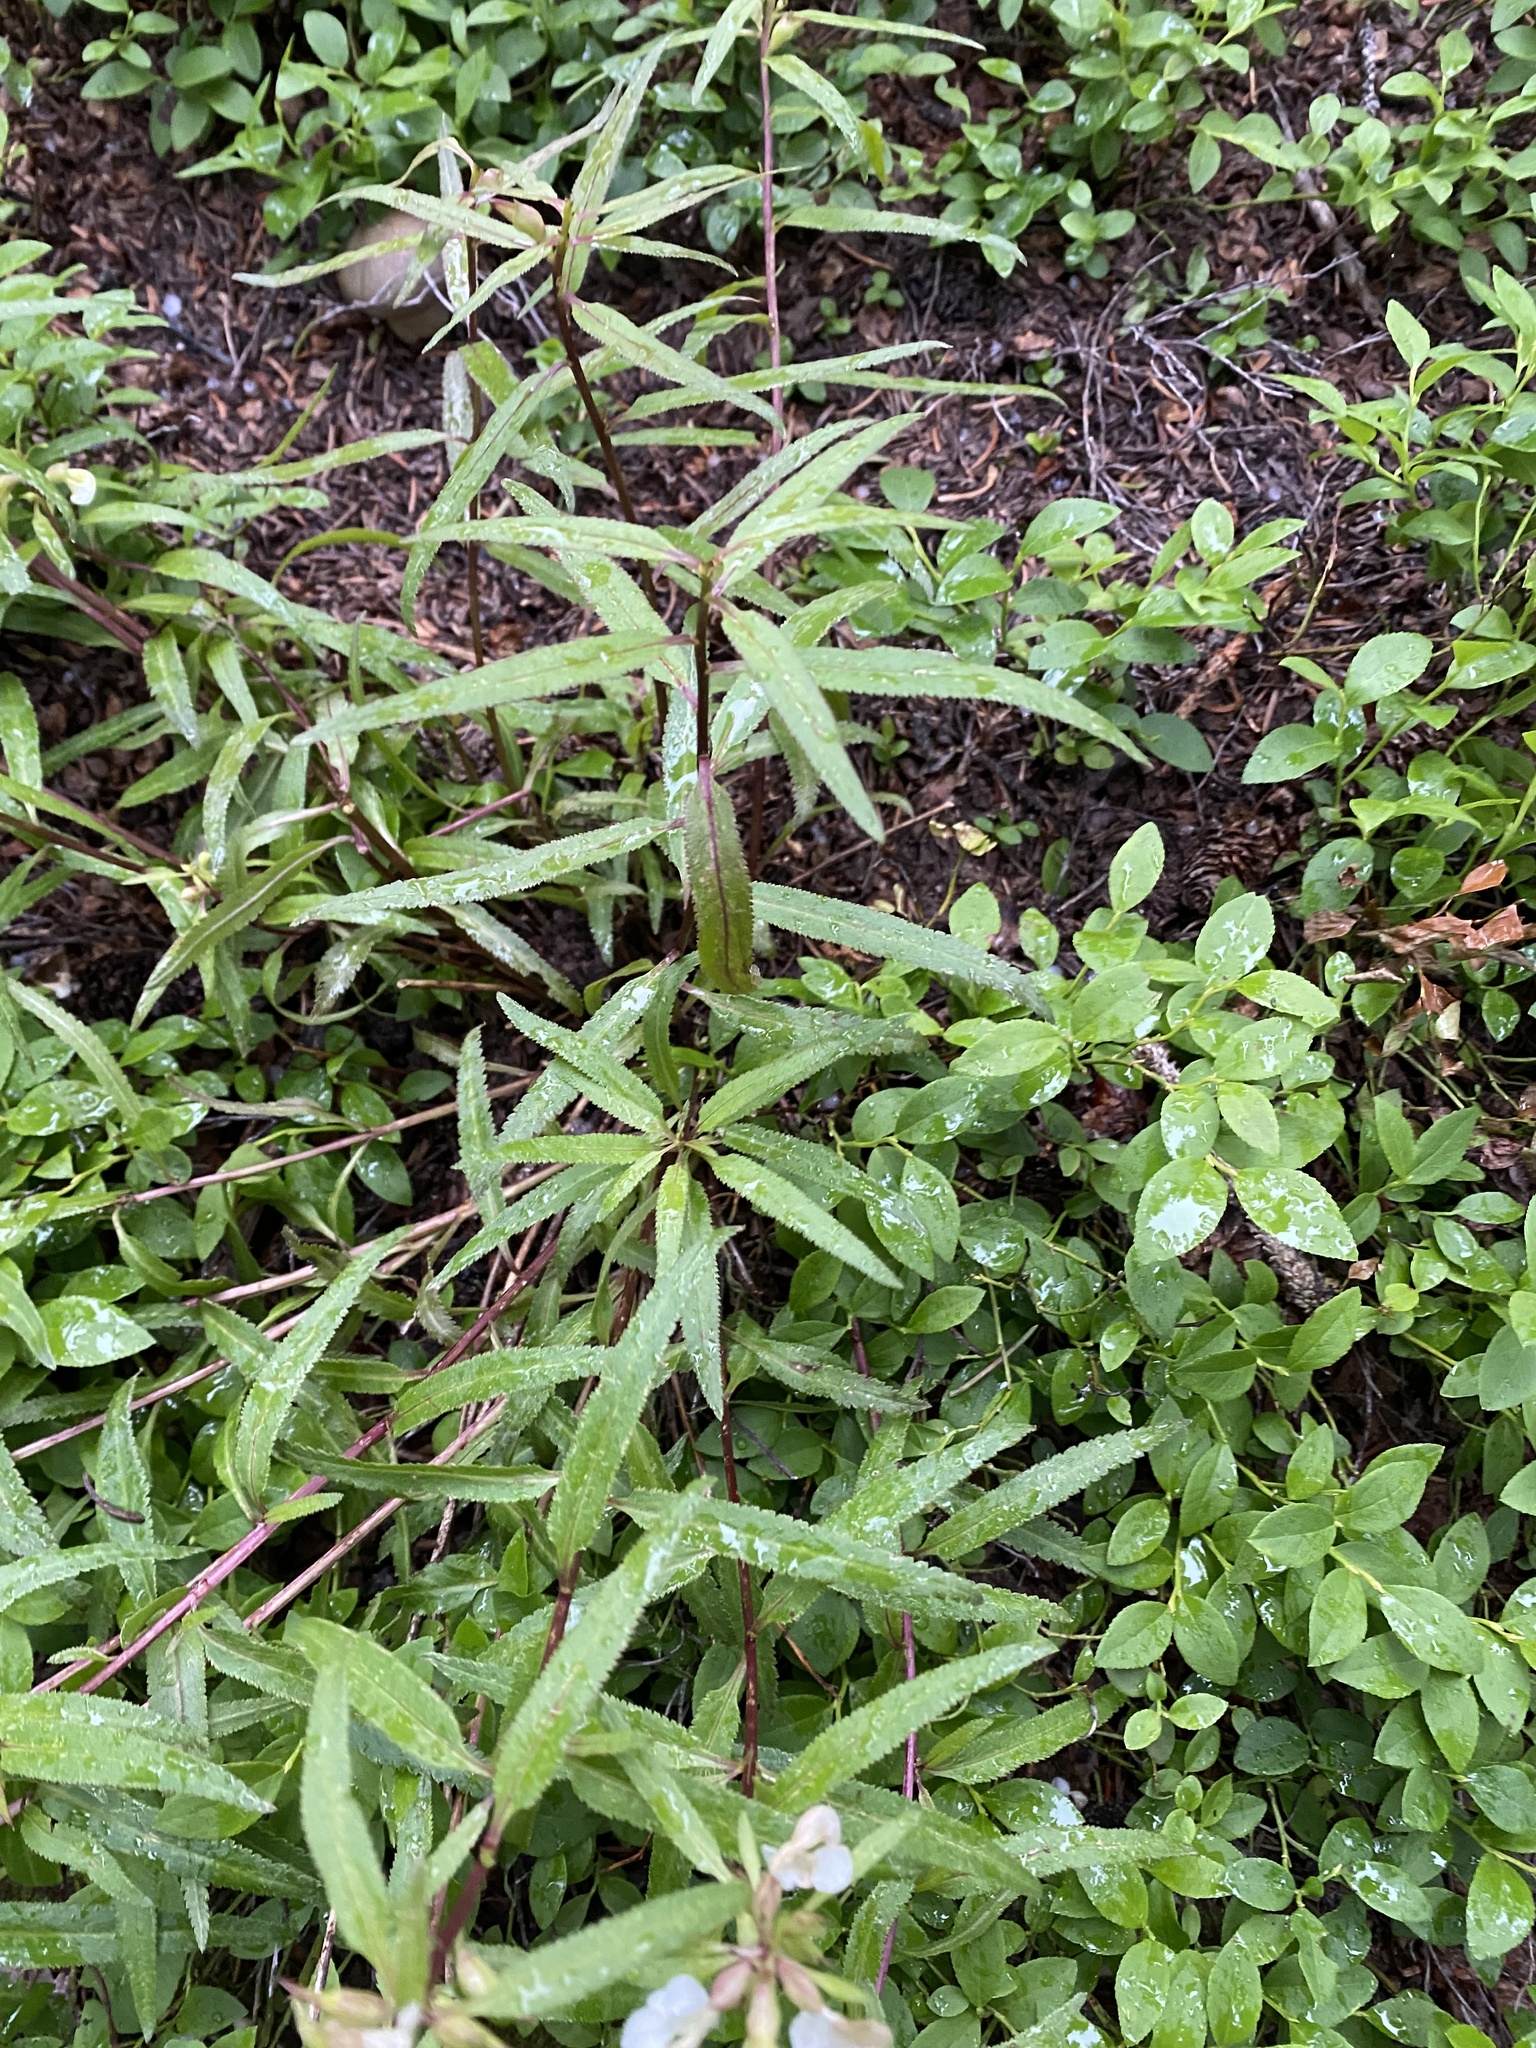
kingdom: Plantae
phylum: Tracheophyta
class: Magnoliopsida
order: Lamiales
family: Orobanchaceae
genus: Pedicularis
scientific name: Pedicularis racemosa
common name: Leafy lousewort
